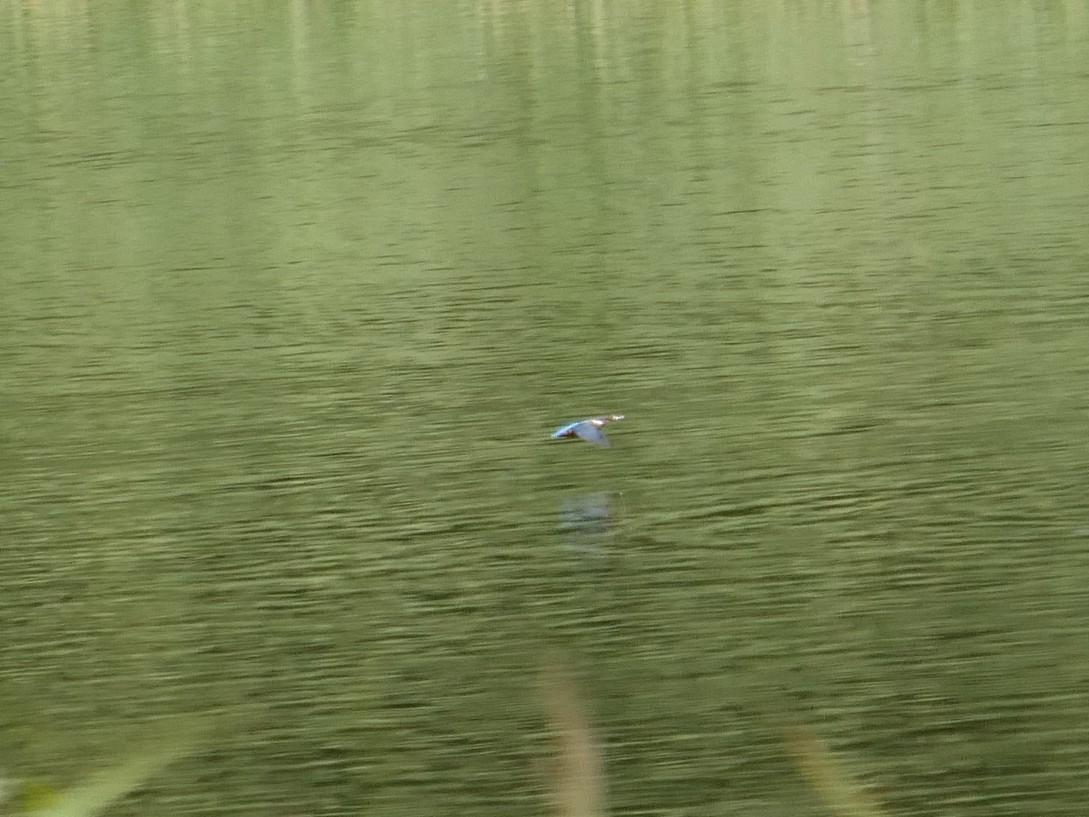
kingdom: Animalia
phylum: Chordata
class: Aves
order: Coraciiformes
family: Alcedinidae
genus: Alcedo
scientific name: Alcedo atthis
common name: Common kingfisher
